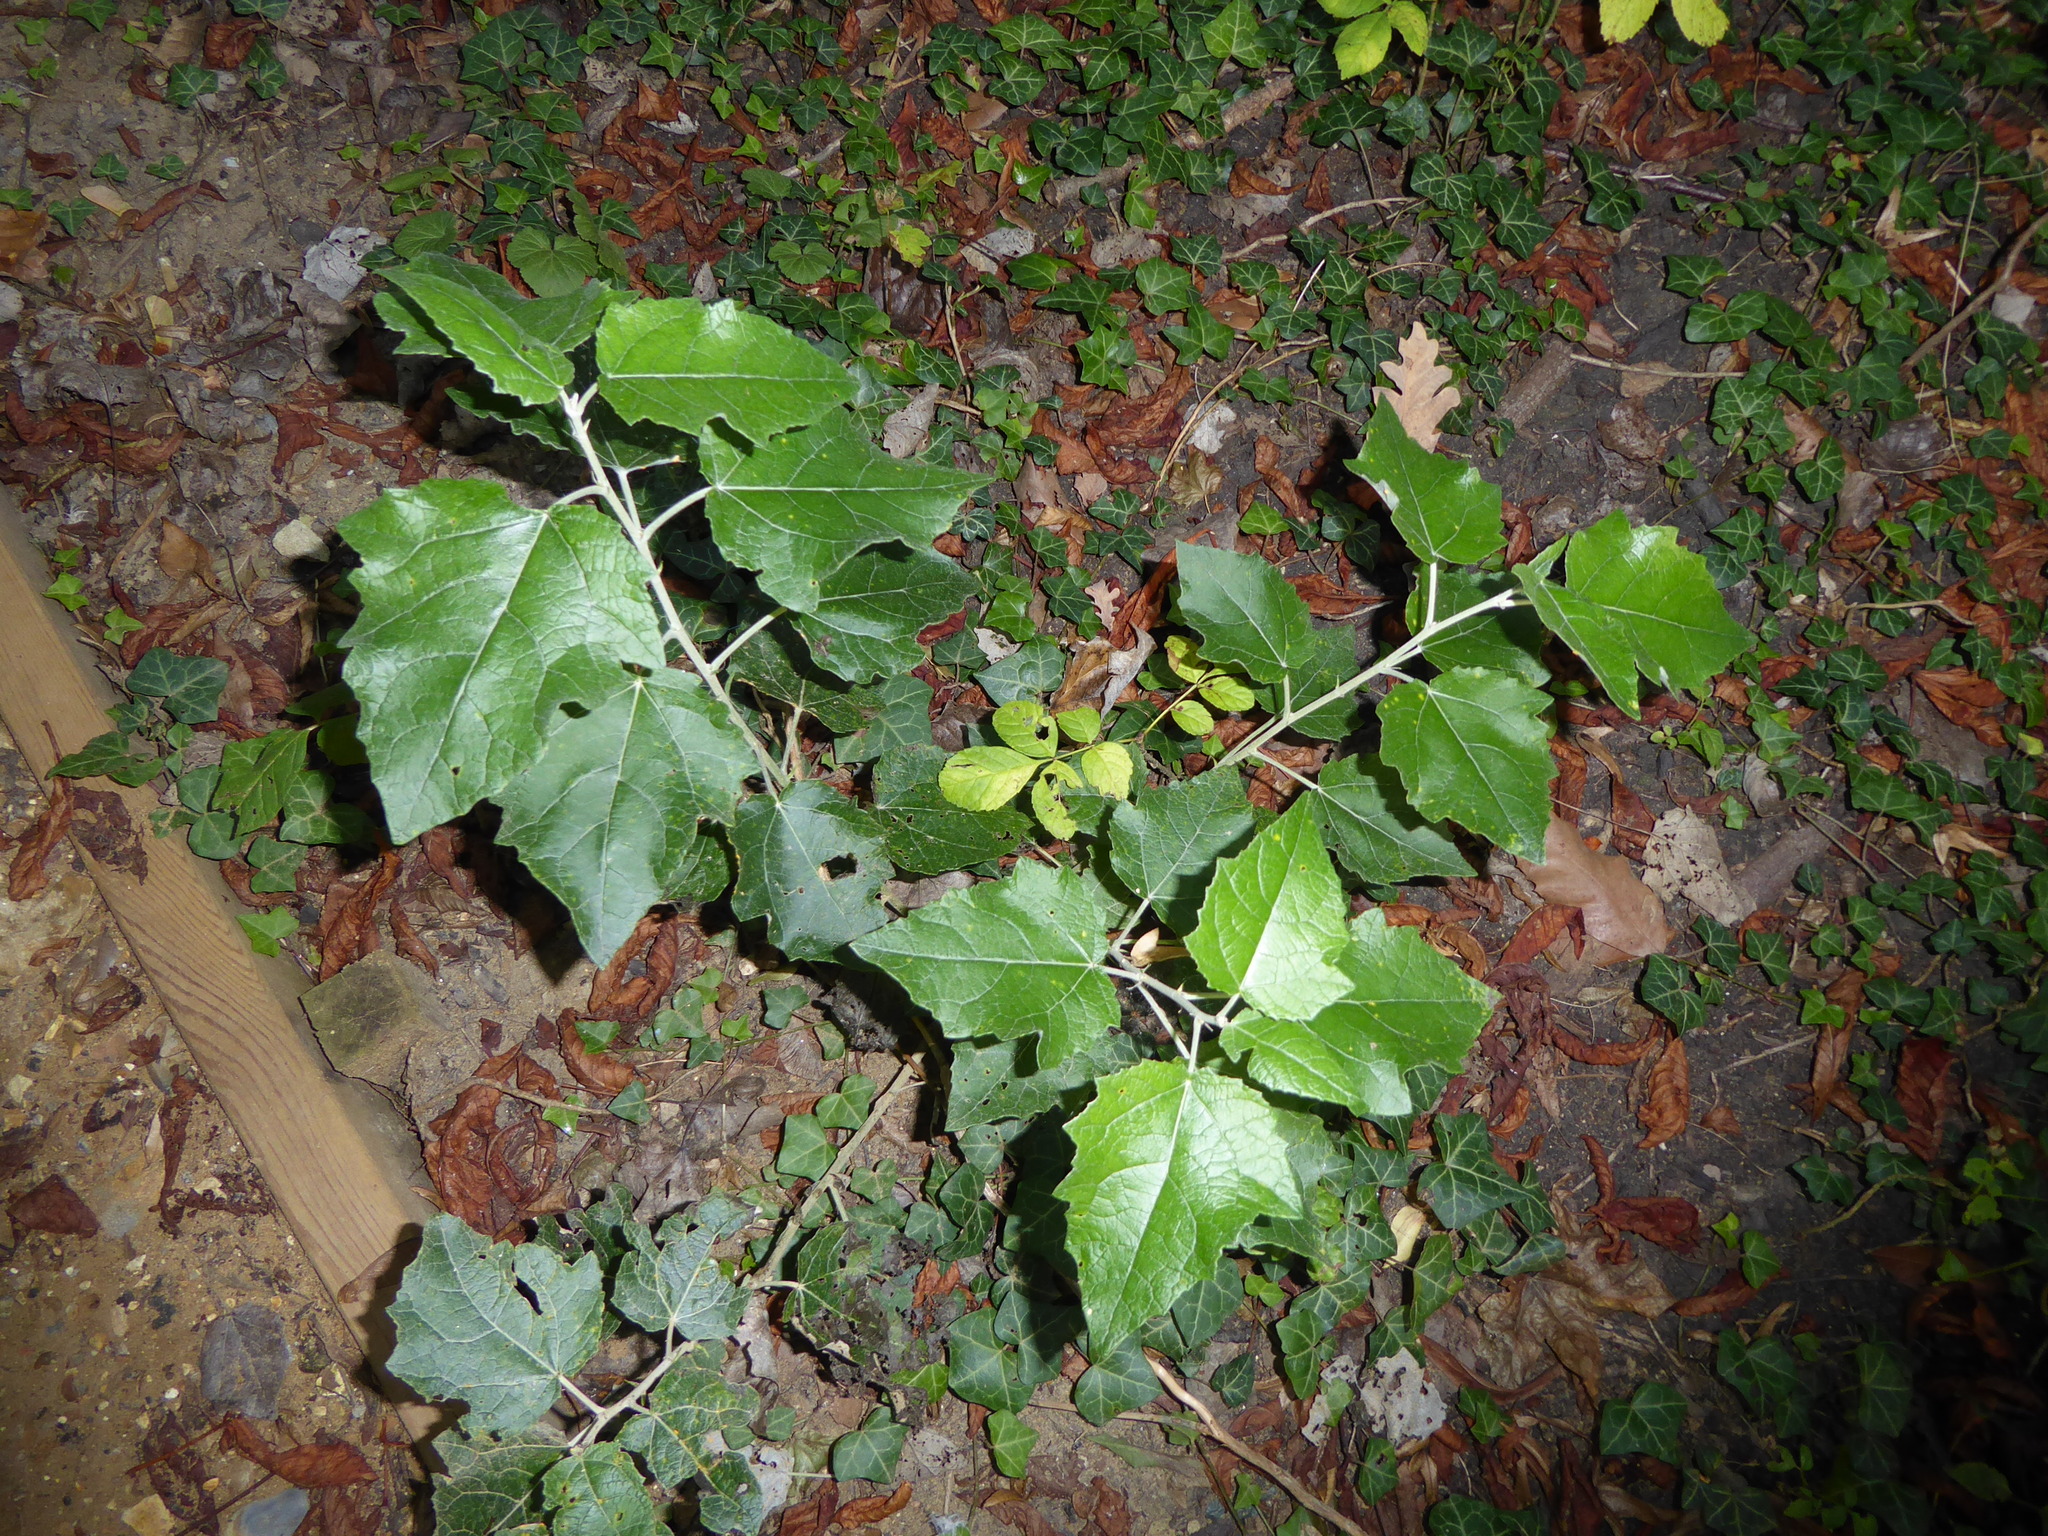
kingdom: Plantae
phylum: Tracheophyta
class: Magnoliopsida
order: Malpighiales
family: Salicaceae
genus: Populus
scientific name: Populus canescens
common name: Gray poplar
